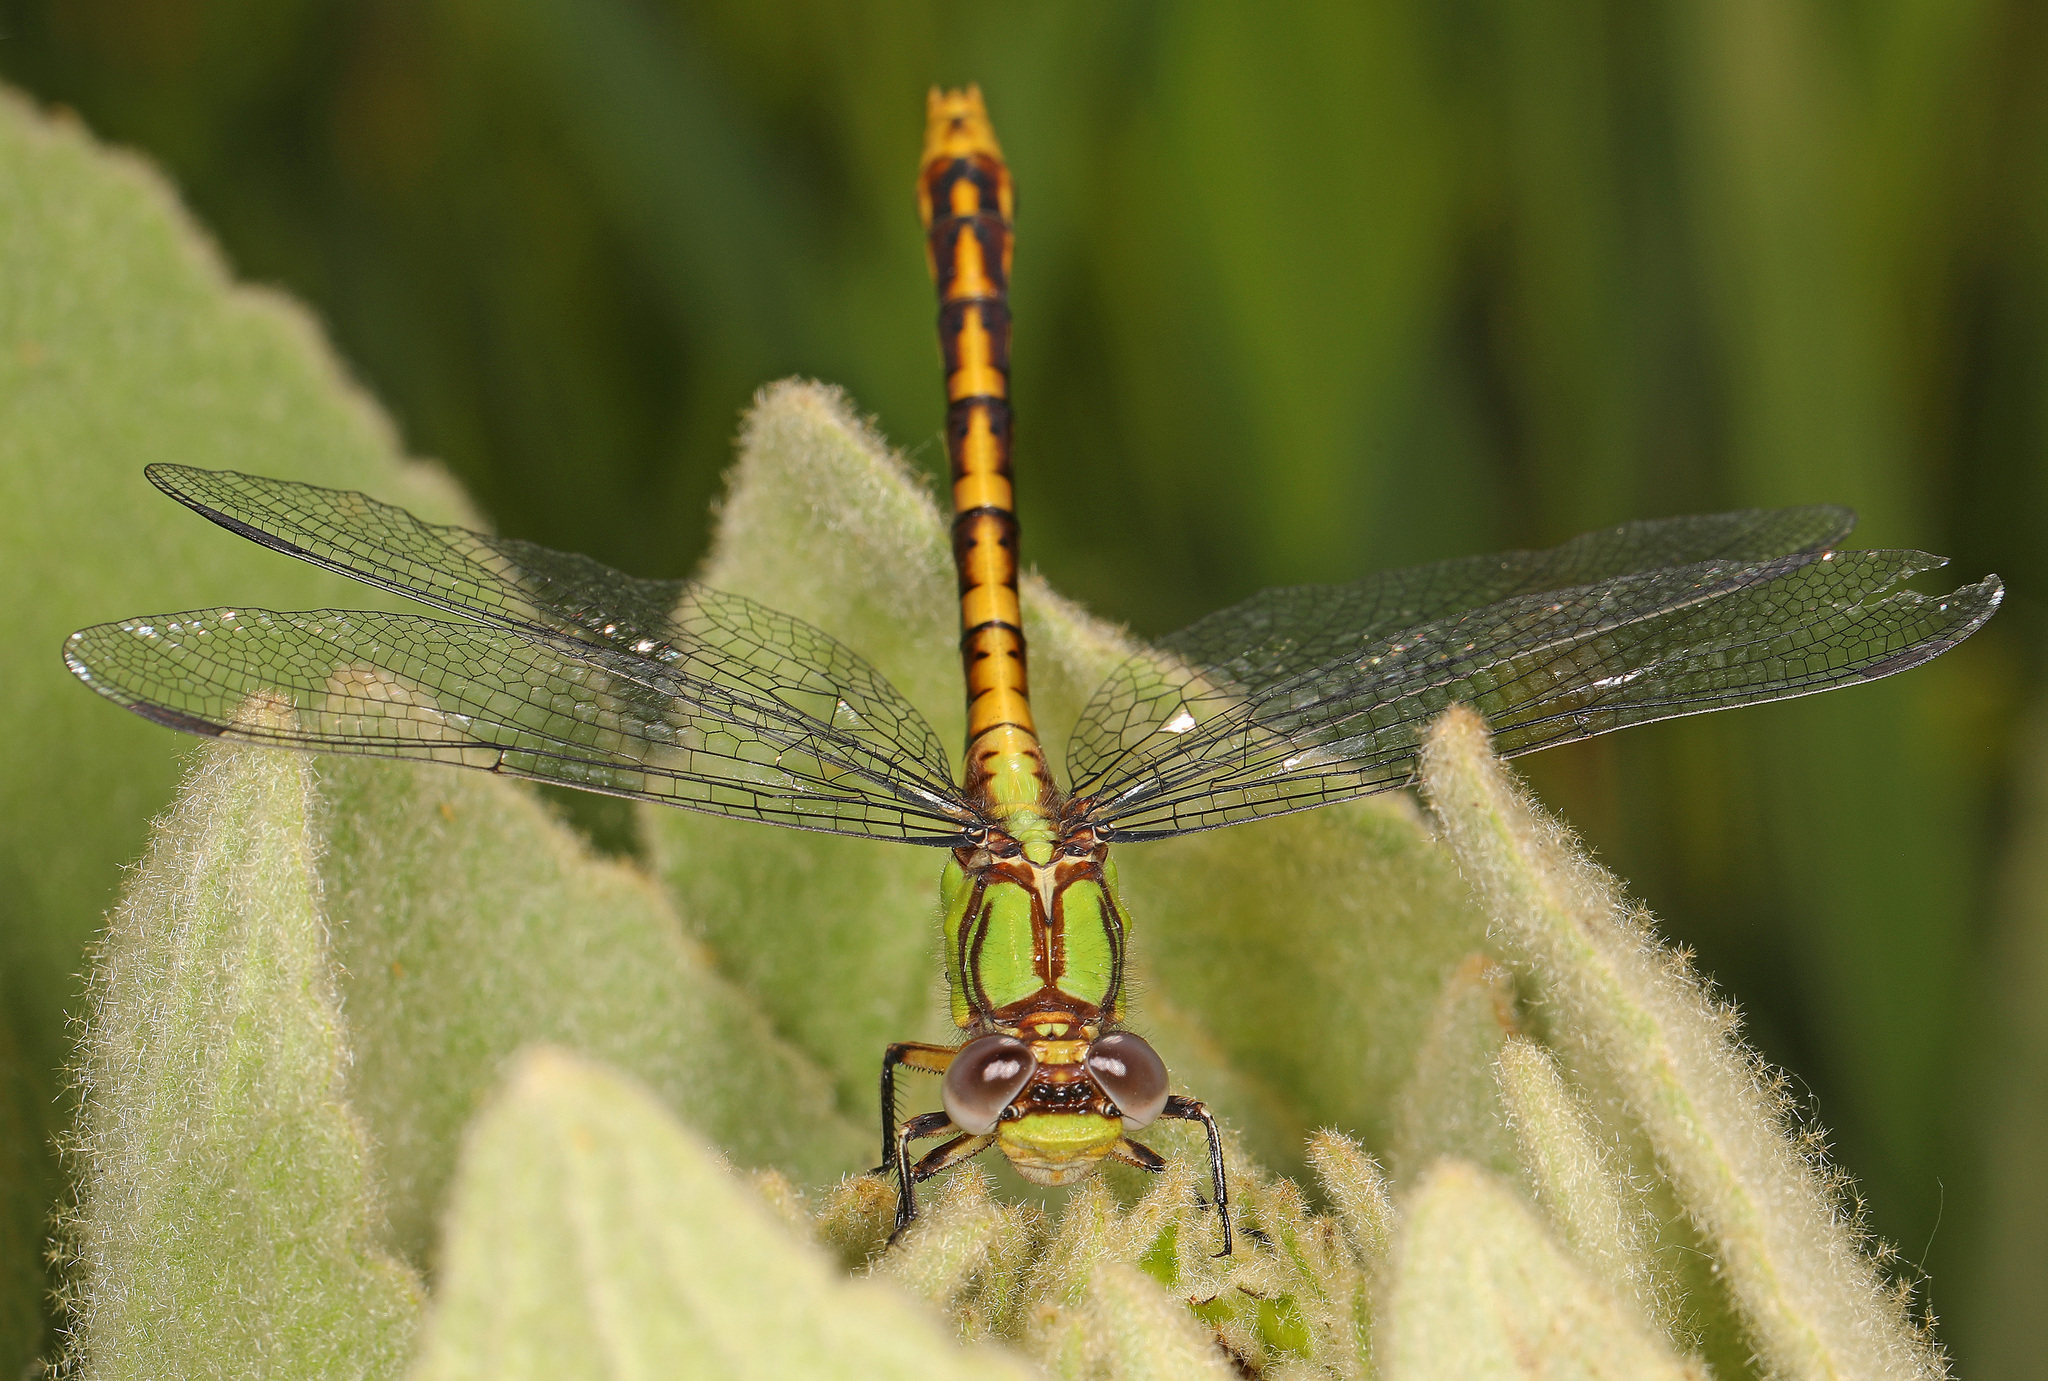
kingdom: Animalia
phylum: Arthropoda
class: Insecta
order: Odonata
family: Gomphidae
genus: Ophiogomphus
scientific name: Ophiogomphus incurvatus
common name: Appalachian snaketail
